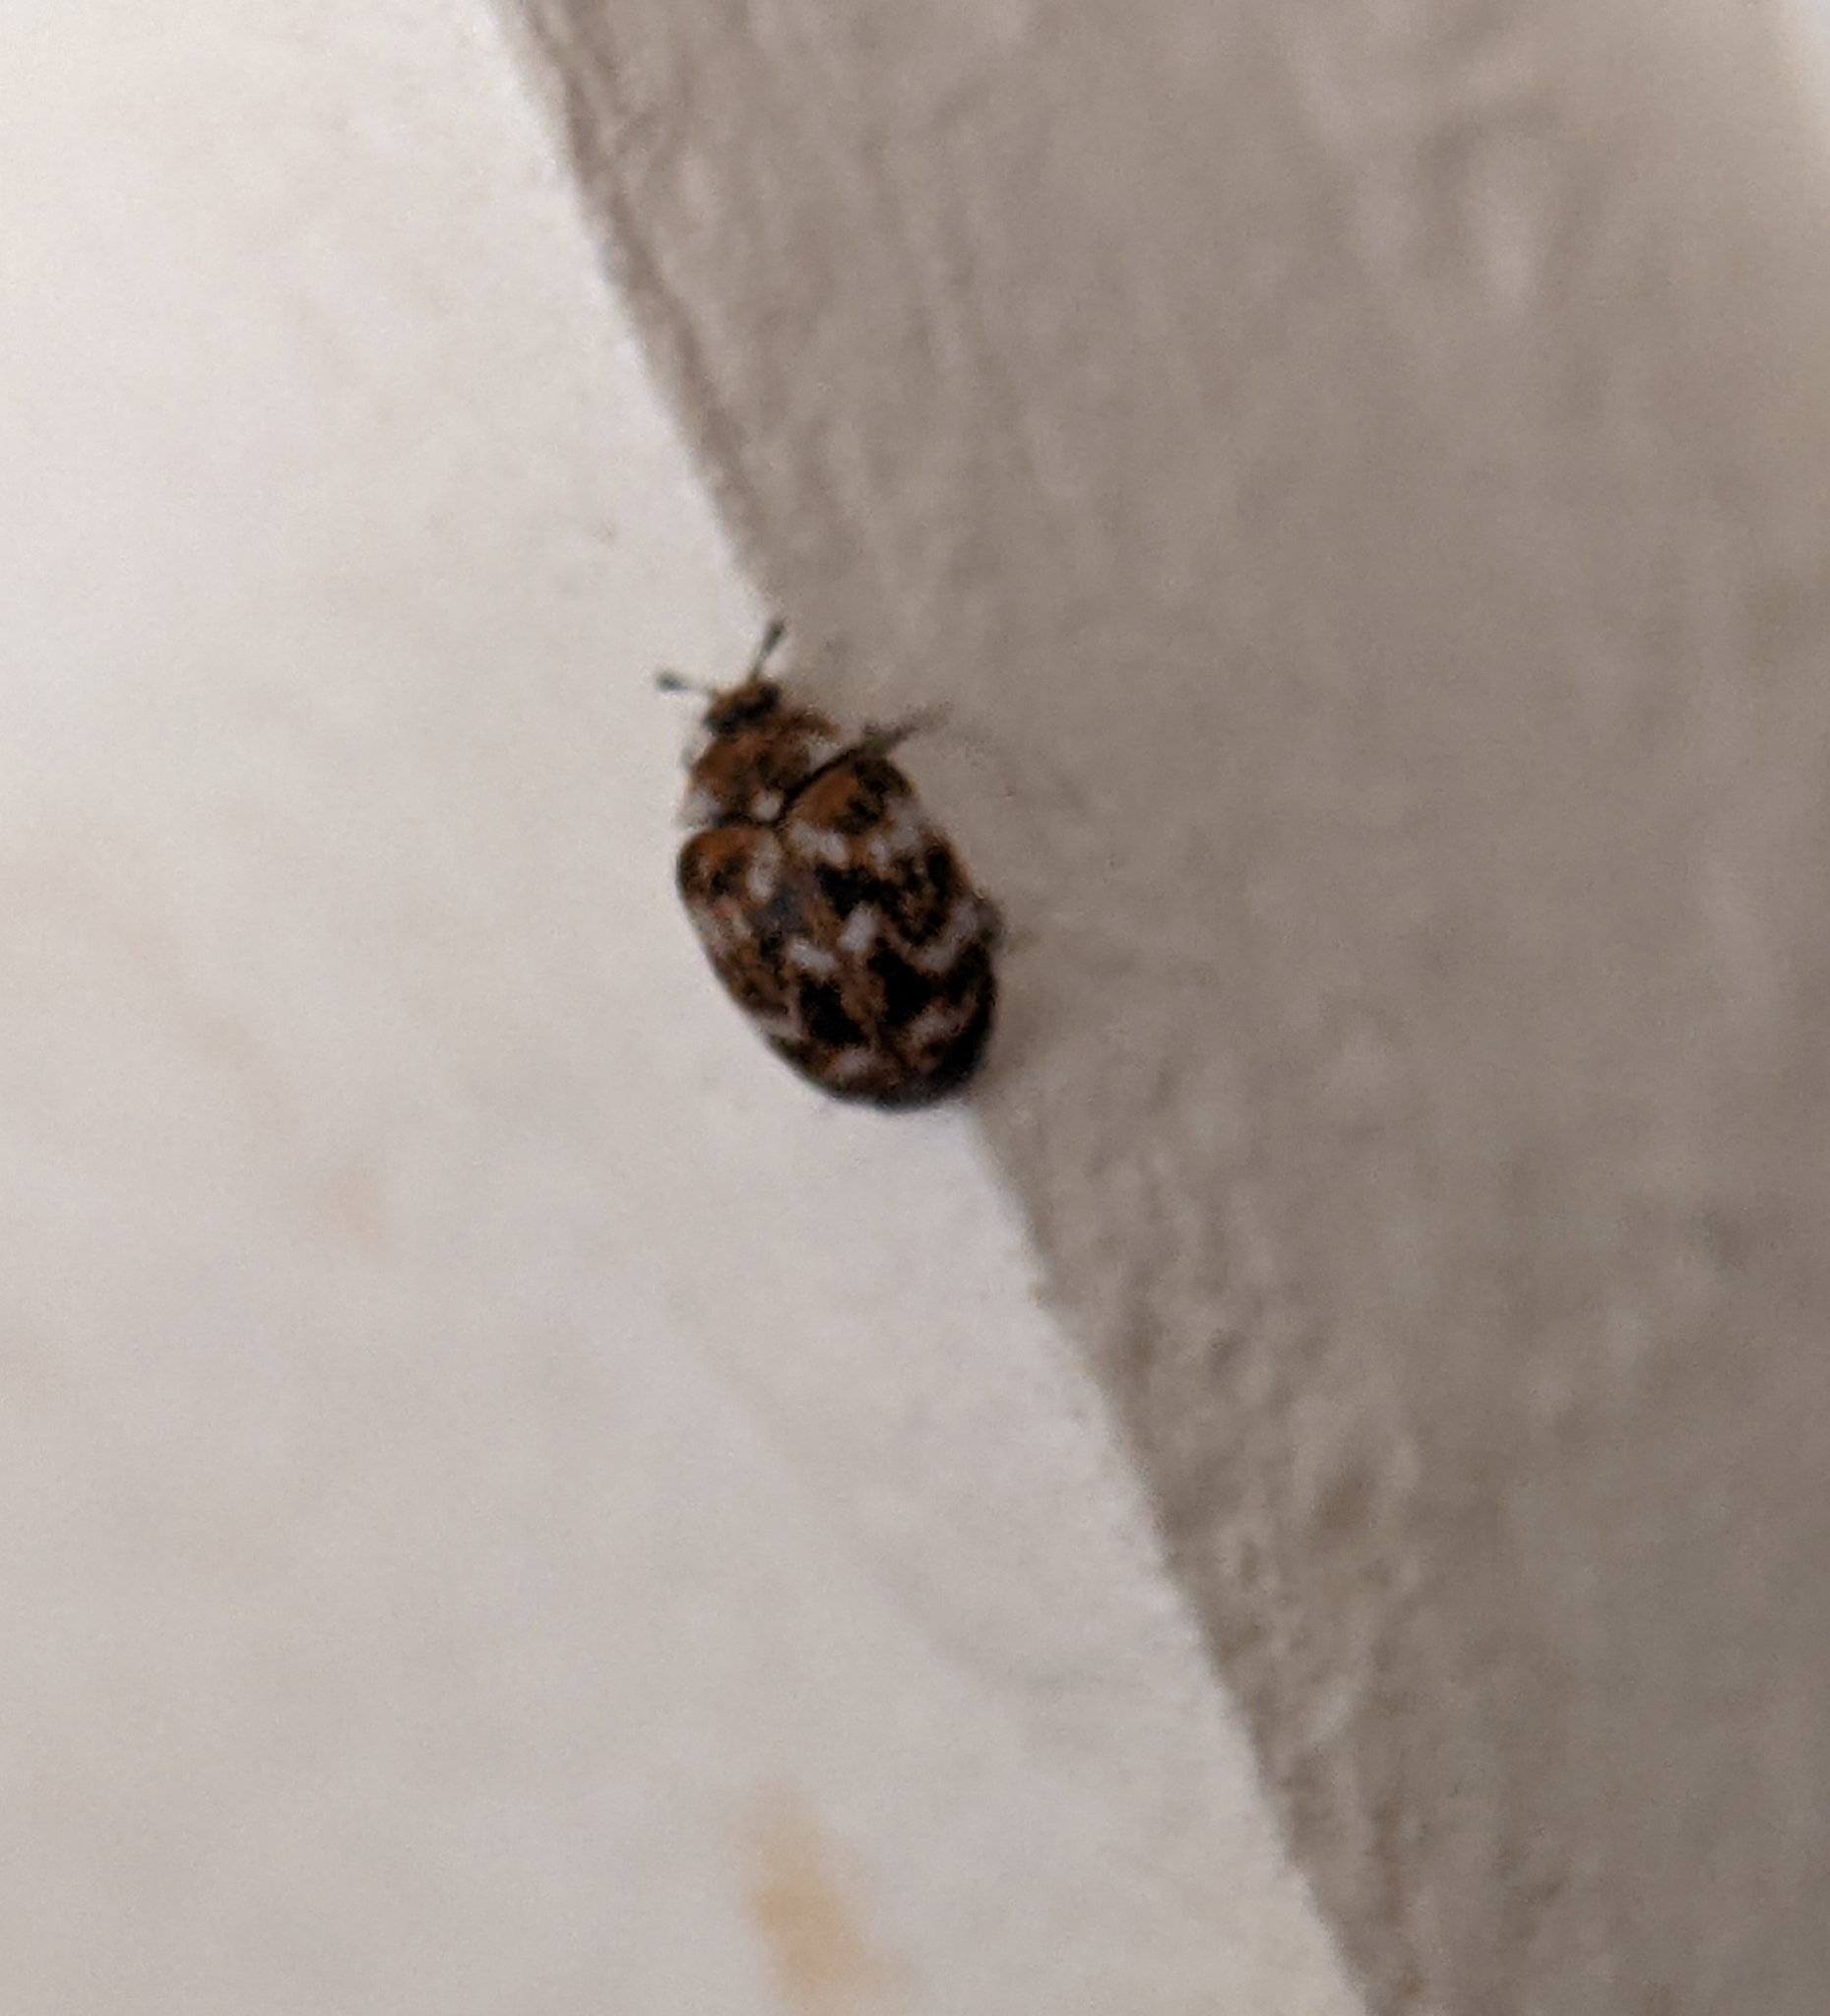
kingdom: Animalia
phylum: Arthropoda
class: Insecta
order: Coleoptera
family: Dermestidae
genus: Anthrenus
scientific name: Anthrenus verbasci
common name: Varied carpet beetle
